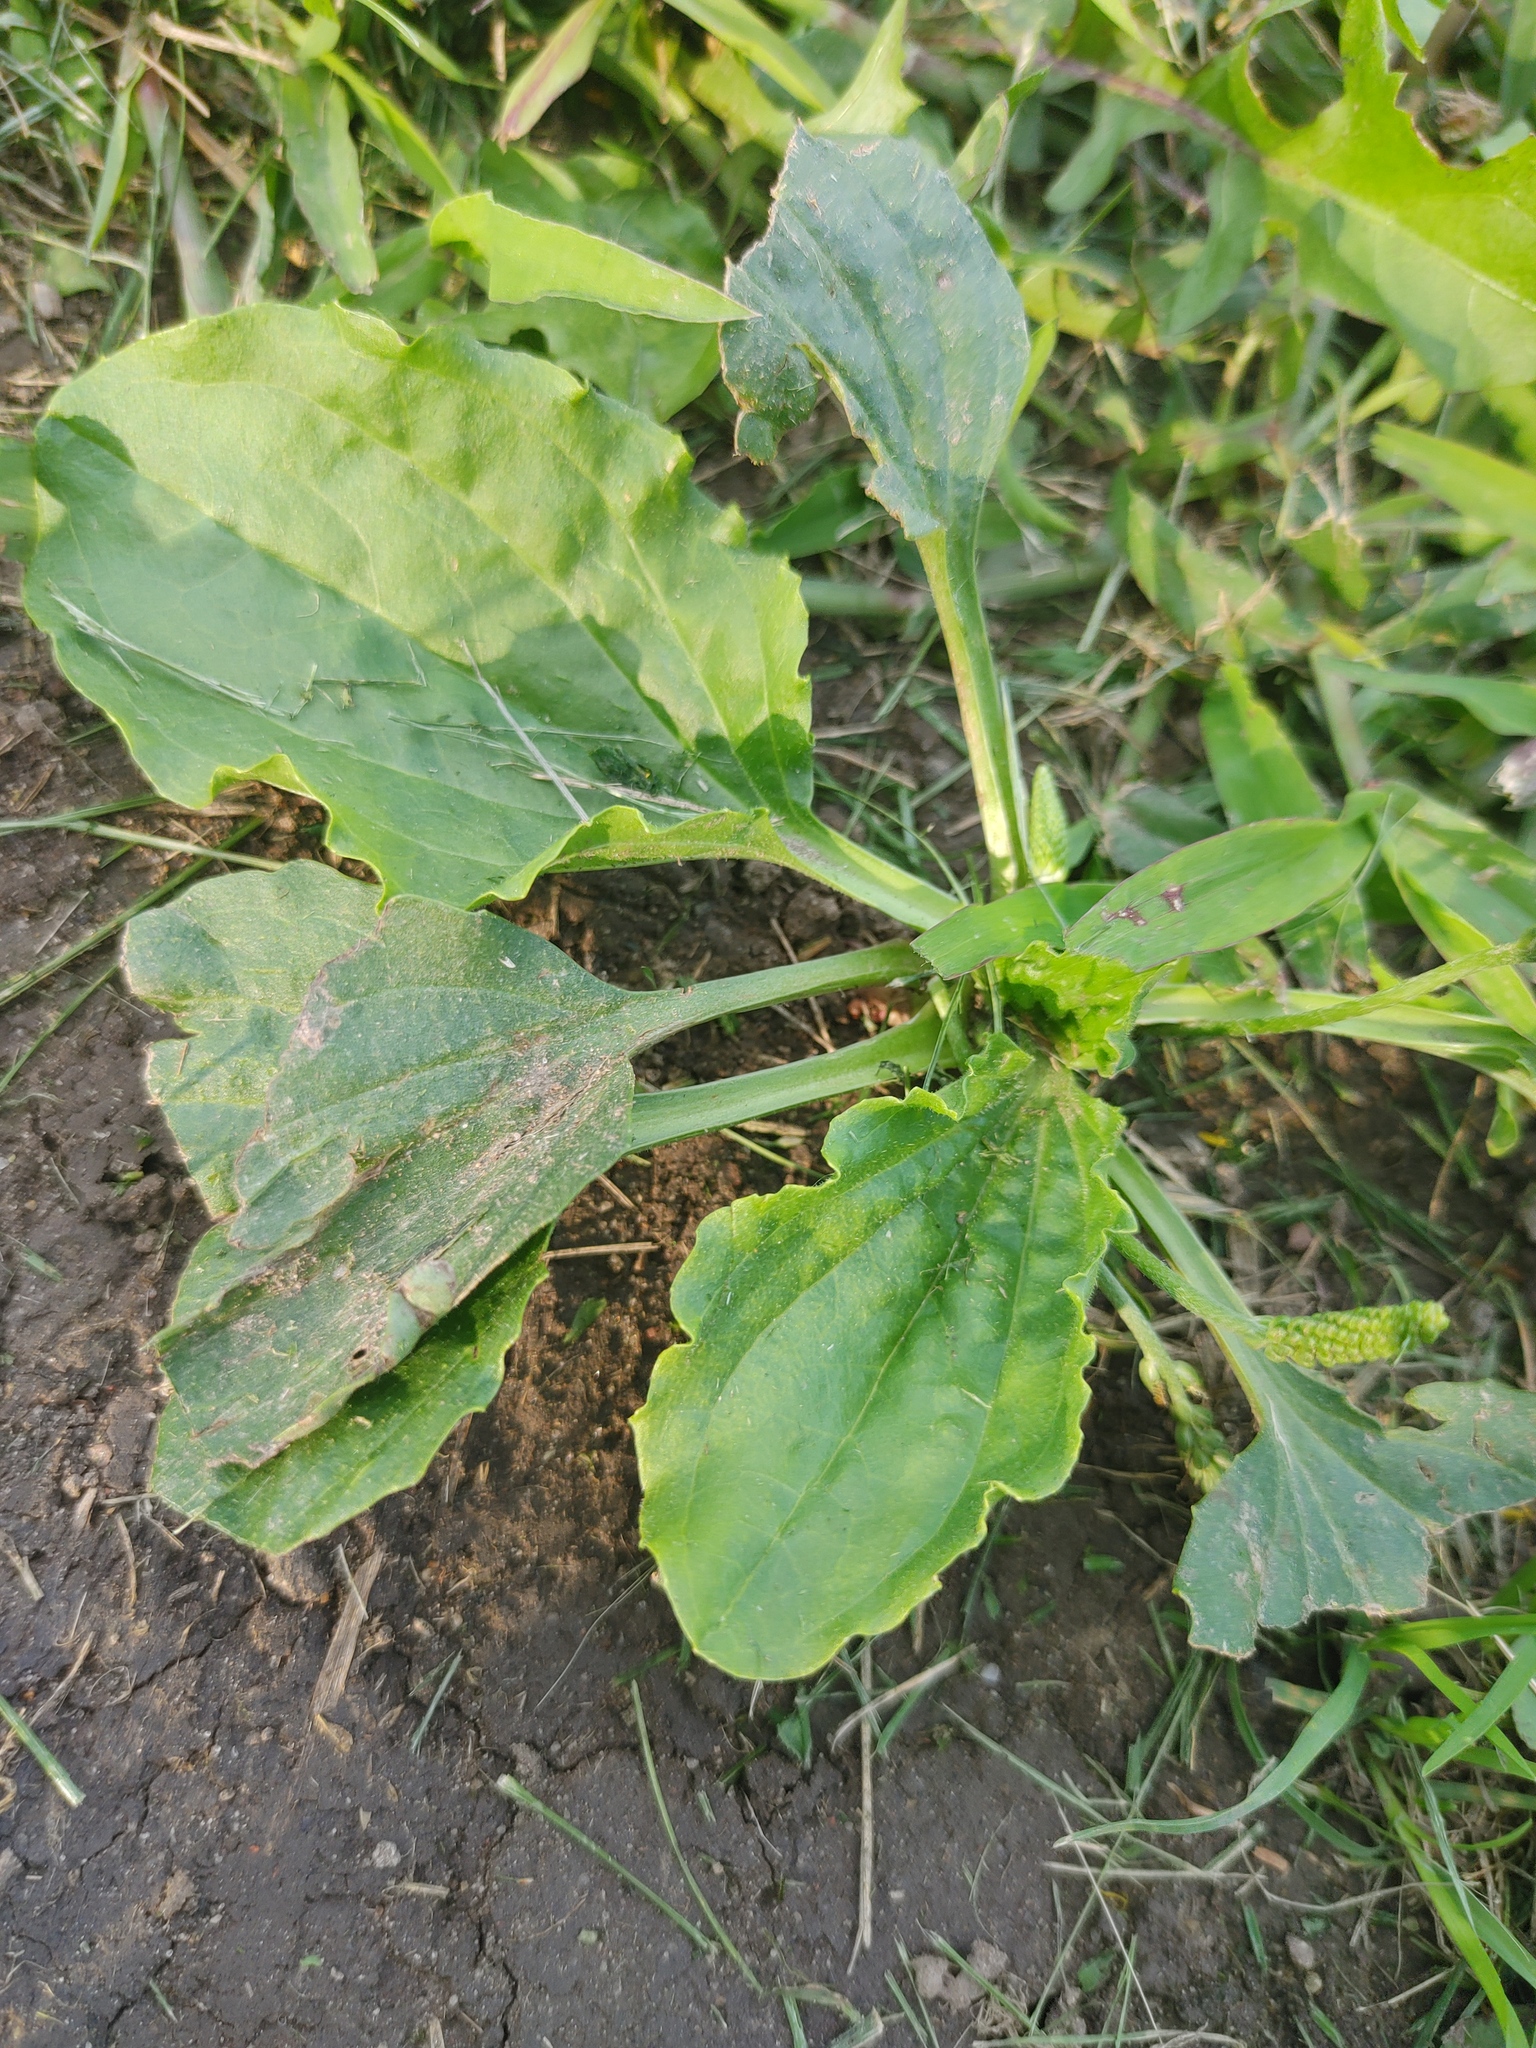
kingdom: Plantae
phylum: Tracheophyta
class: Magnoliopsida
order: Lamiales
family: Plantaginaceae
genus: Plantago
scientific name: Plantago major
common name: Common plantain
